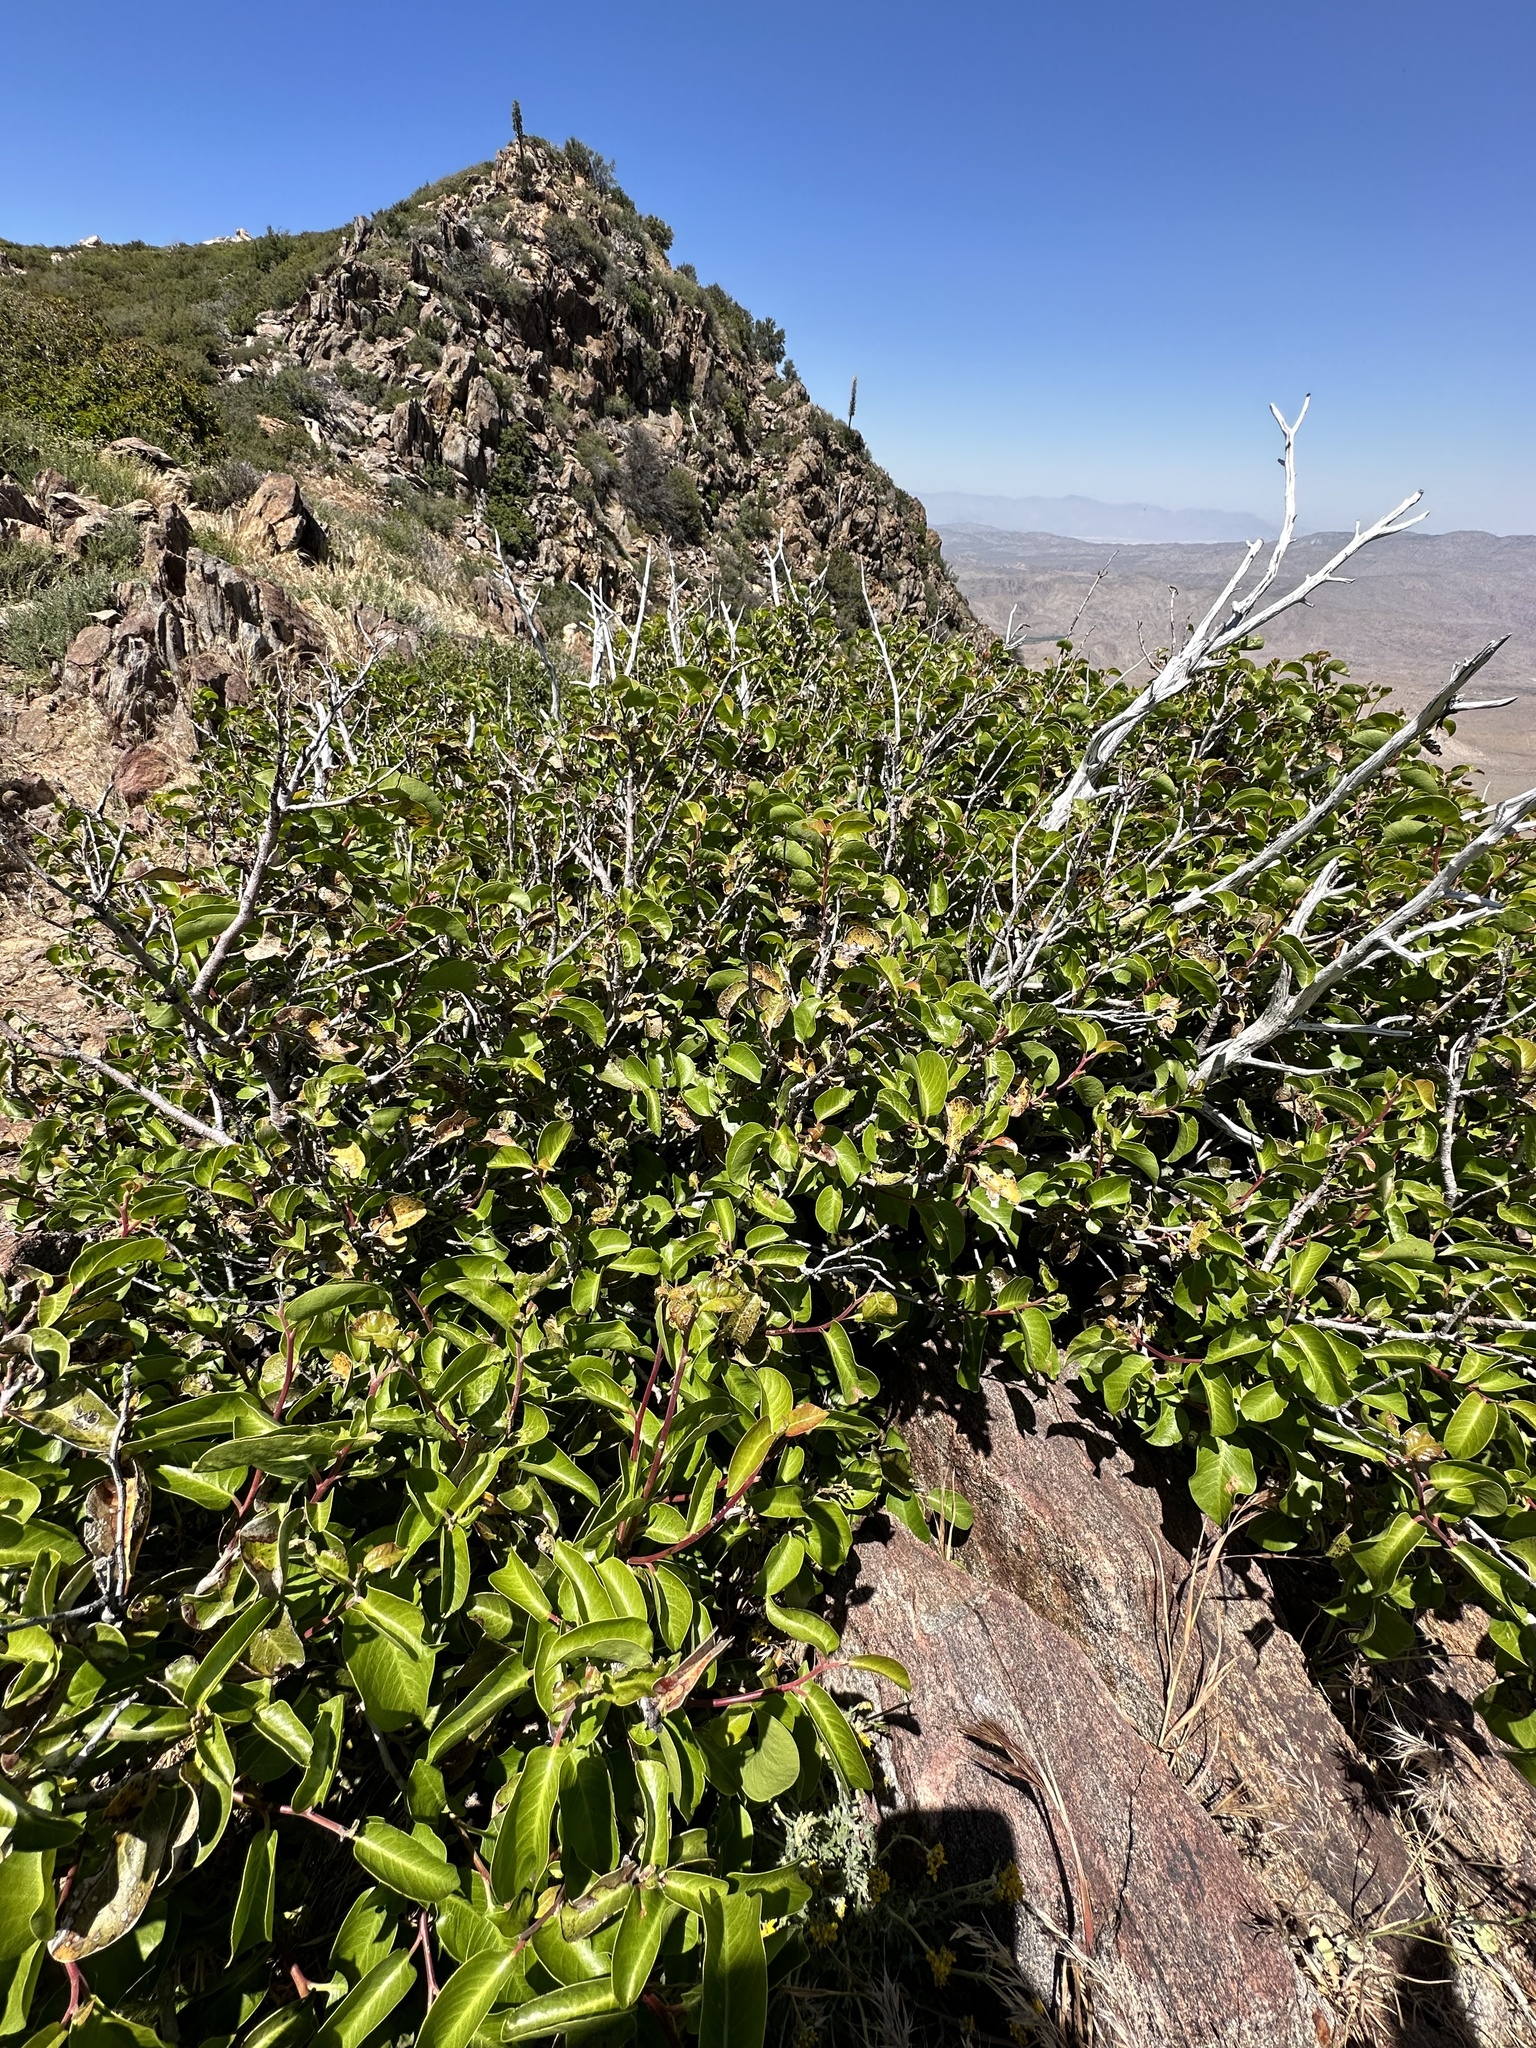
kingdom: Plantae
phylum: Tracheophyta
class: Magnoliopsida
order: Sapindales
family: Anacardiaceae
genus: Rhus
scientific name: Rhus ovata
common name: Sugar sumac
